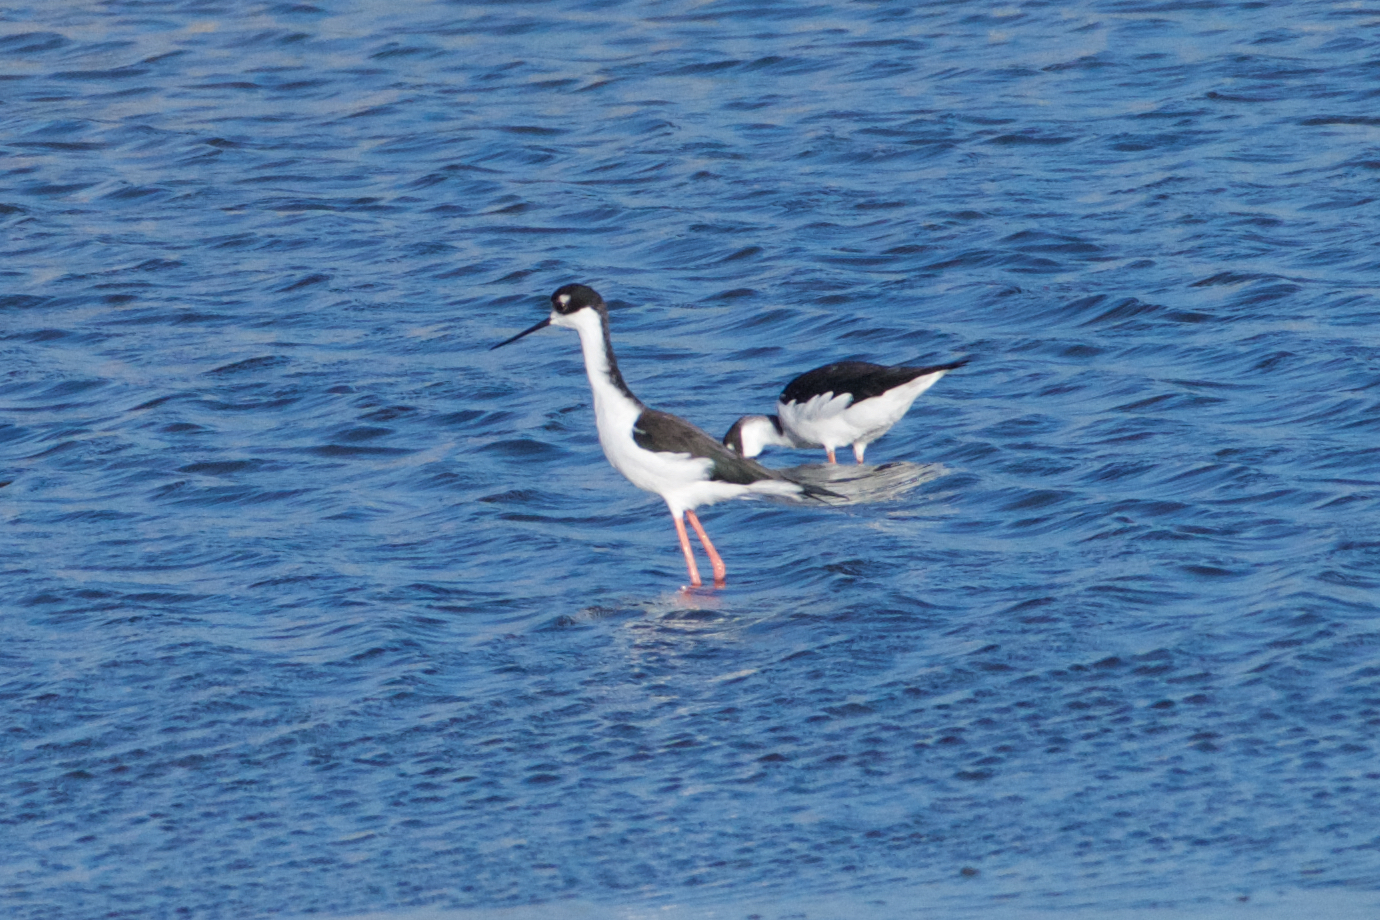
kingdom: Animalia
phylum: Chordata
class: Aves
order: Charadriiformes
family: Recurvirostridae
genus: Himantopus
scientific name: Himantopus mexicanus
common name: Black-necked stilt
